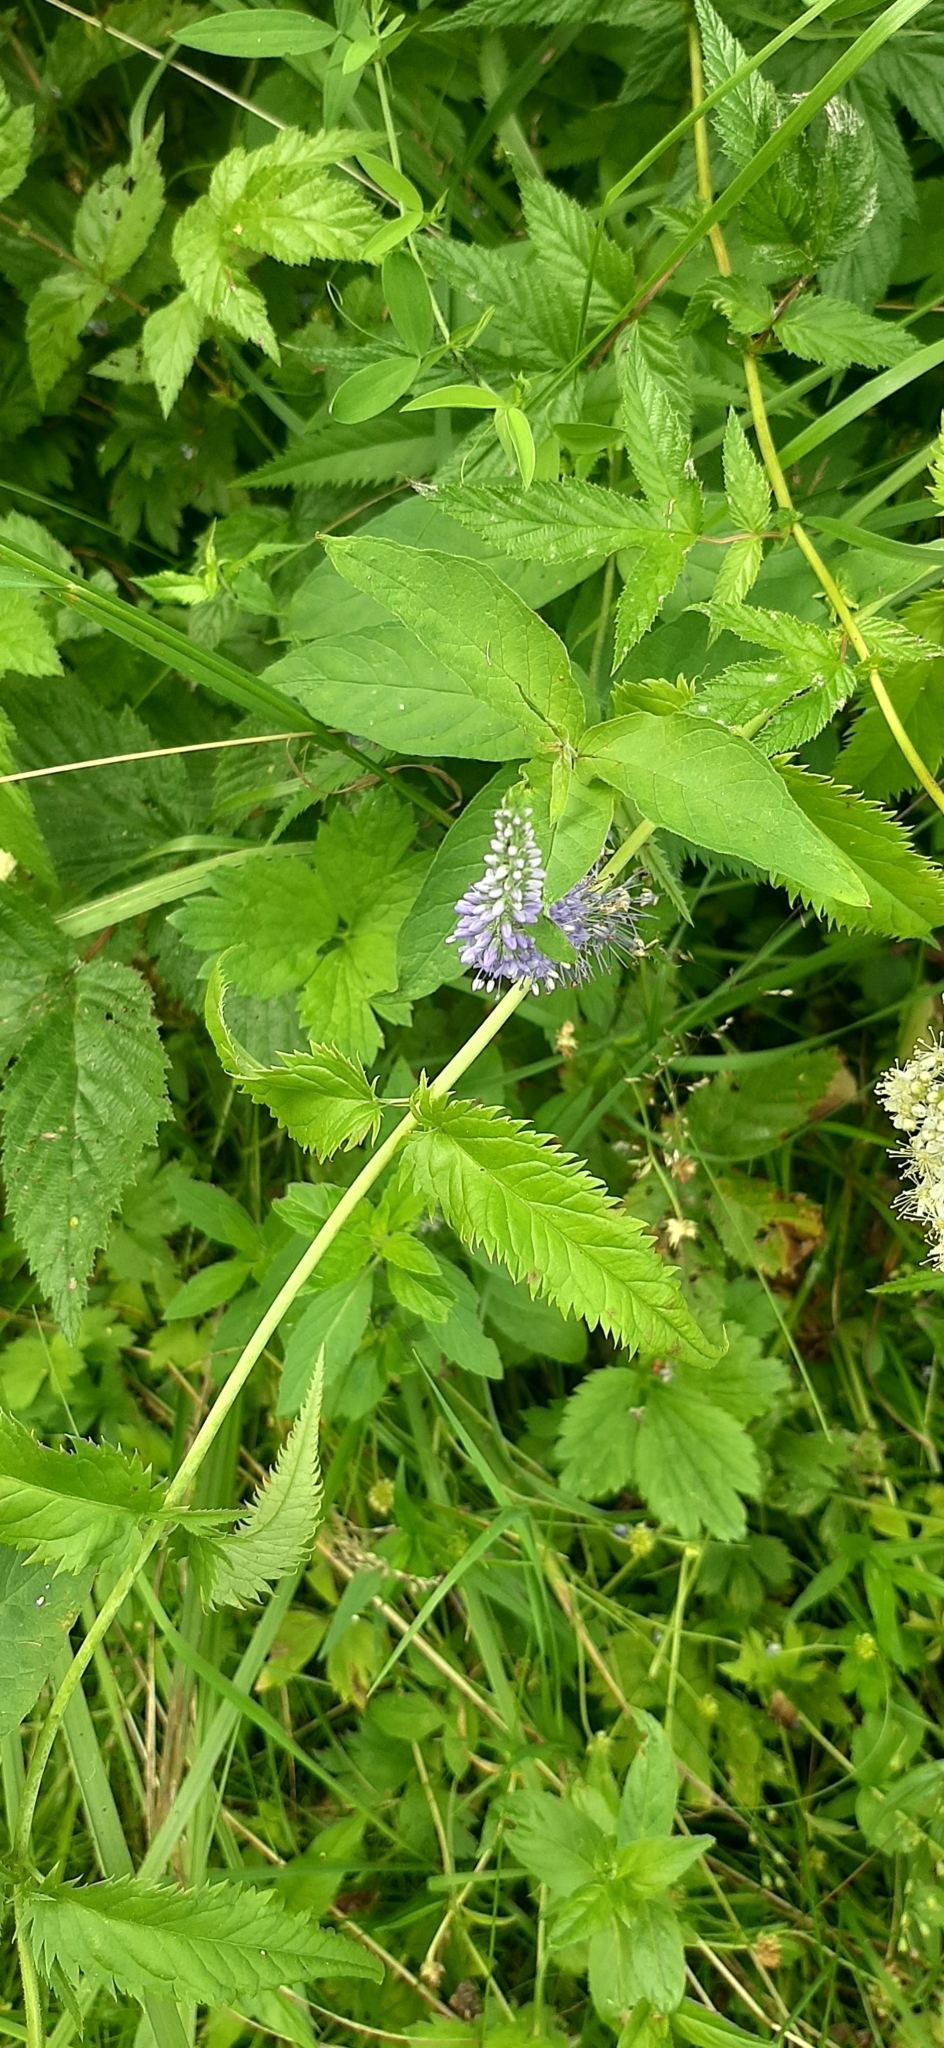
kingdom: Plantae
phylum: Tracheophyta
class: Magnoliopsida
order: Lamiales
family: Plantaginaceae
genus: Veronica
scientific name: Veronica longifolia
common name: Garden speedwell
